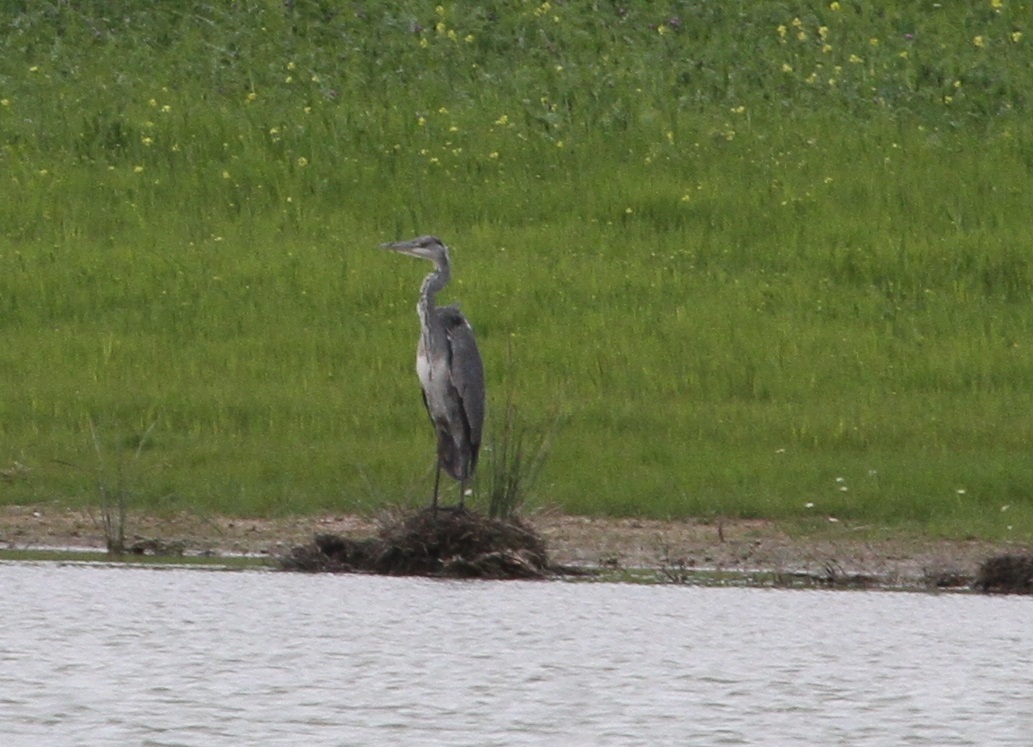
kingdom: Animalia
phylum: Chordata
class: Aves
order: Pelecaniformes
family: Ardeidae
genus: Ardea
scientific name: Ardea cinerea
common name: Grey heron
